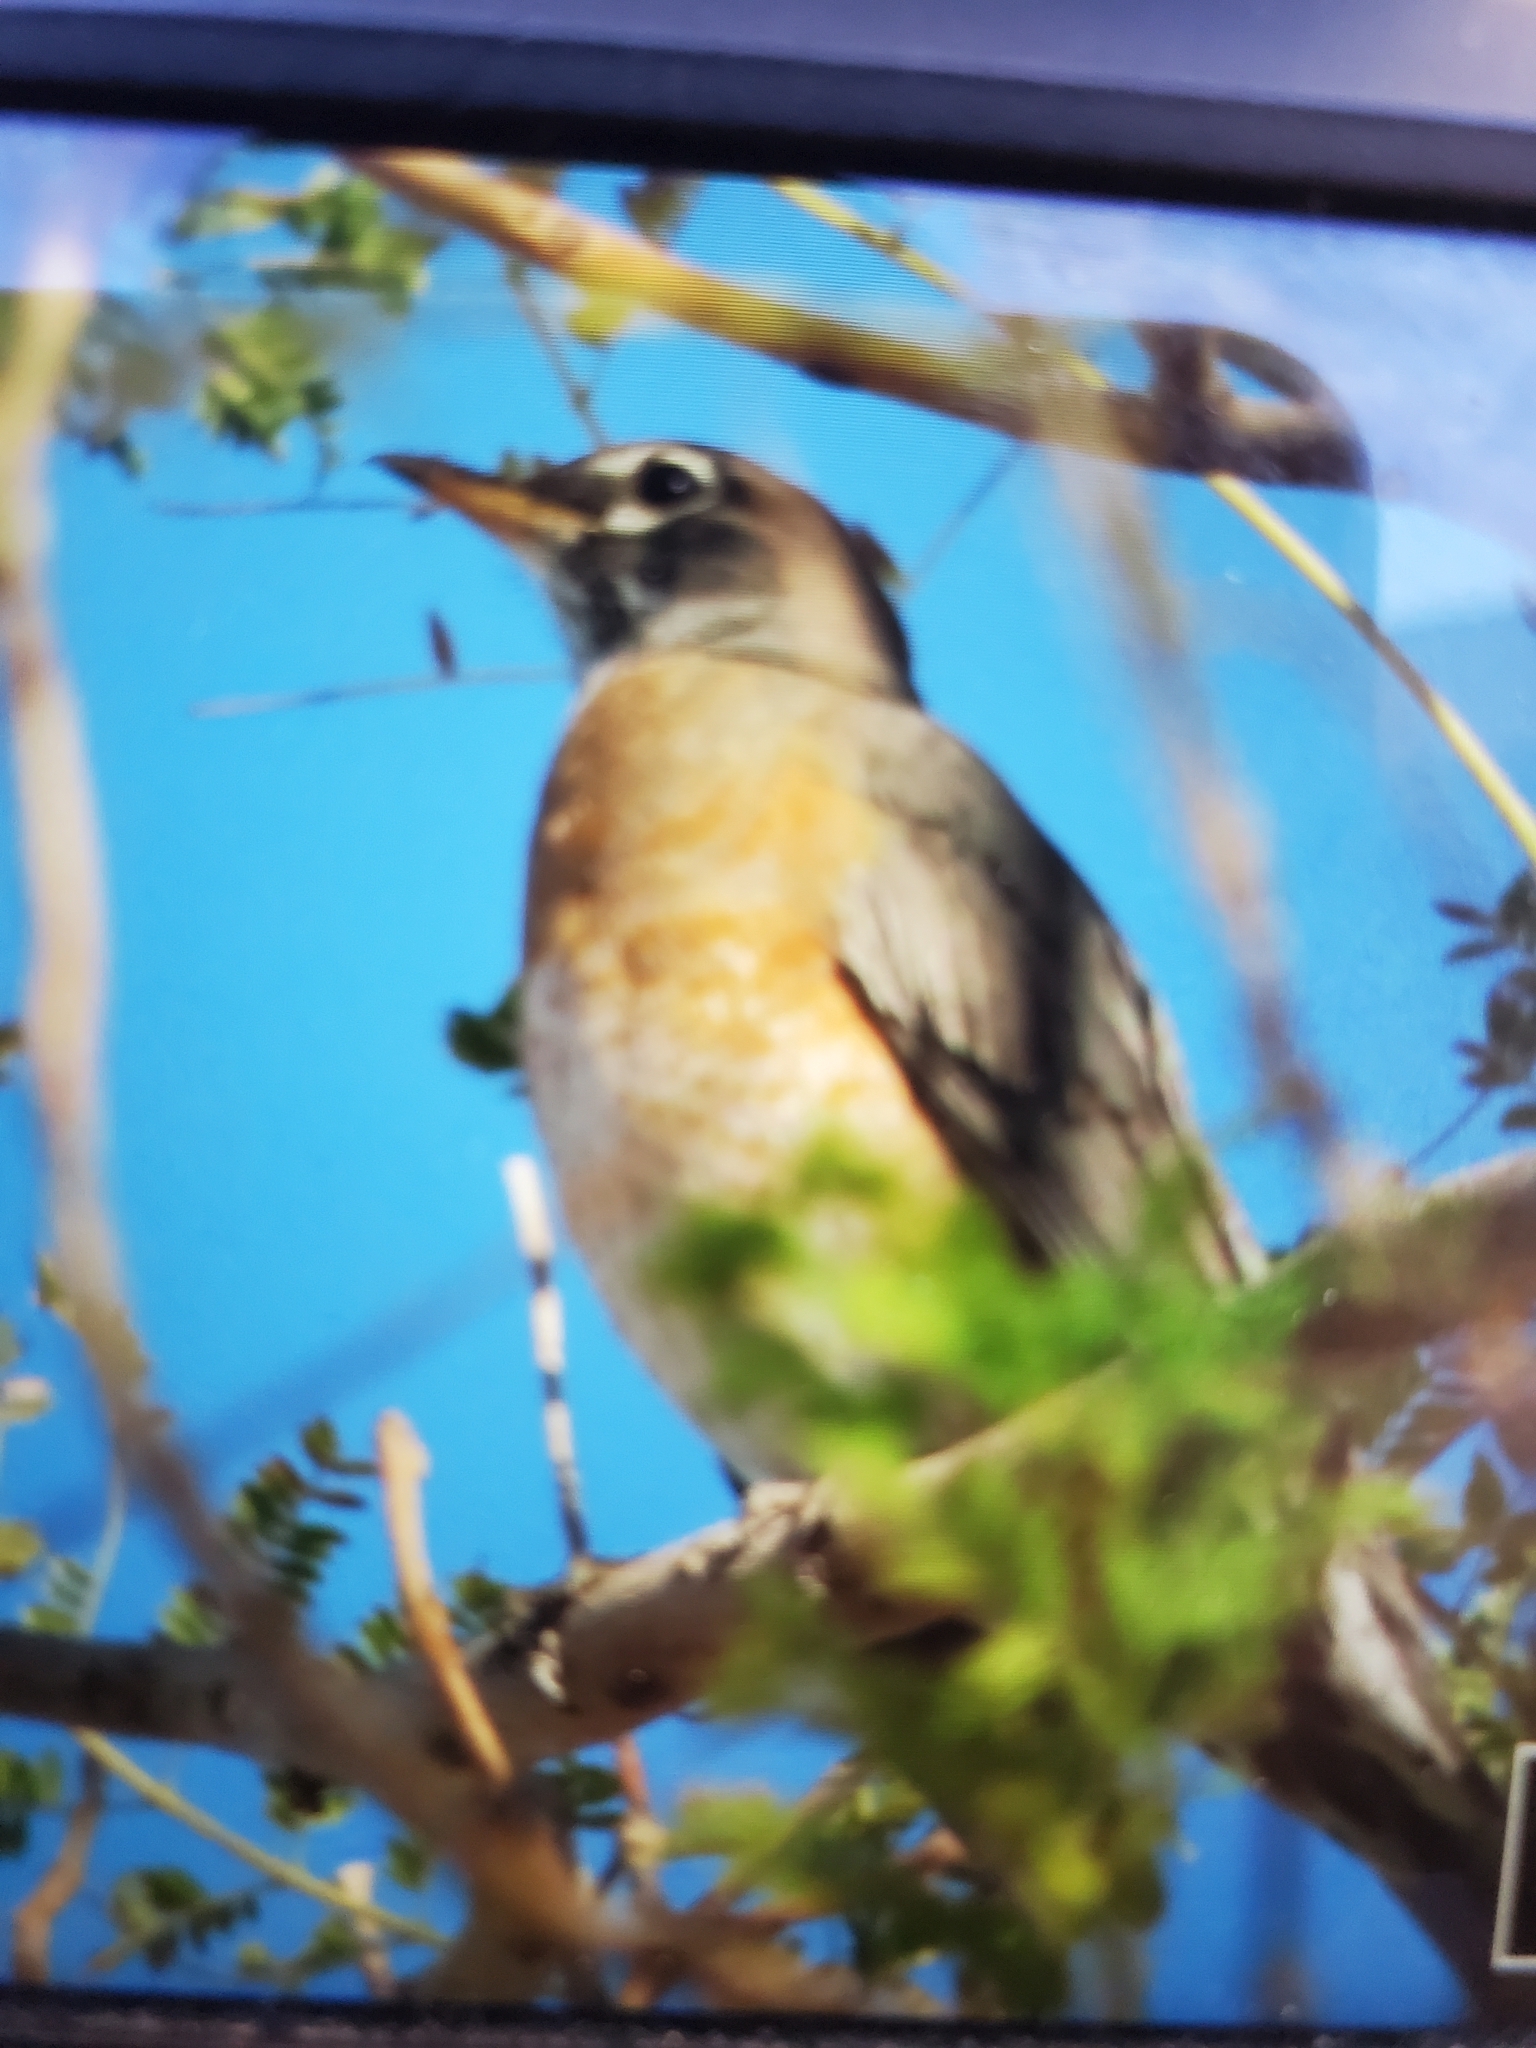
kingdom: Animalia
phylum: Chordata
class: Aves
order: Passeriformes
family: Turdidae
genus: Turdus
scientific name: Turdus migratorius
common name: American robin
